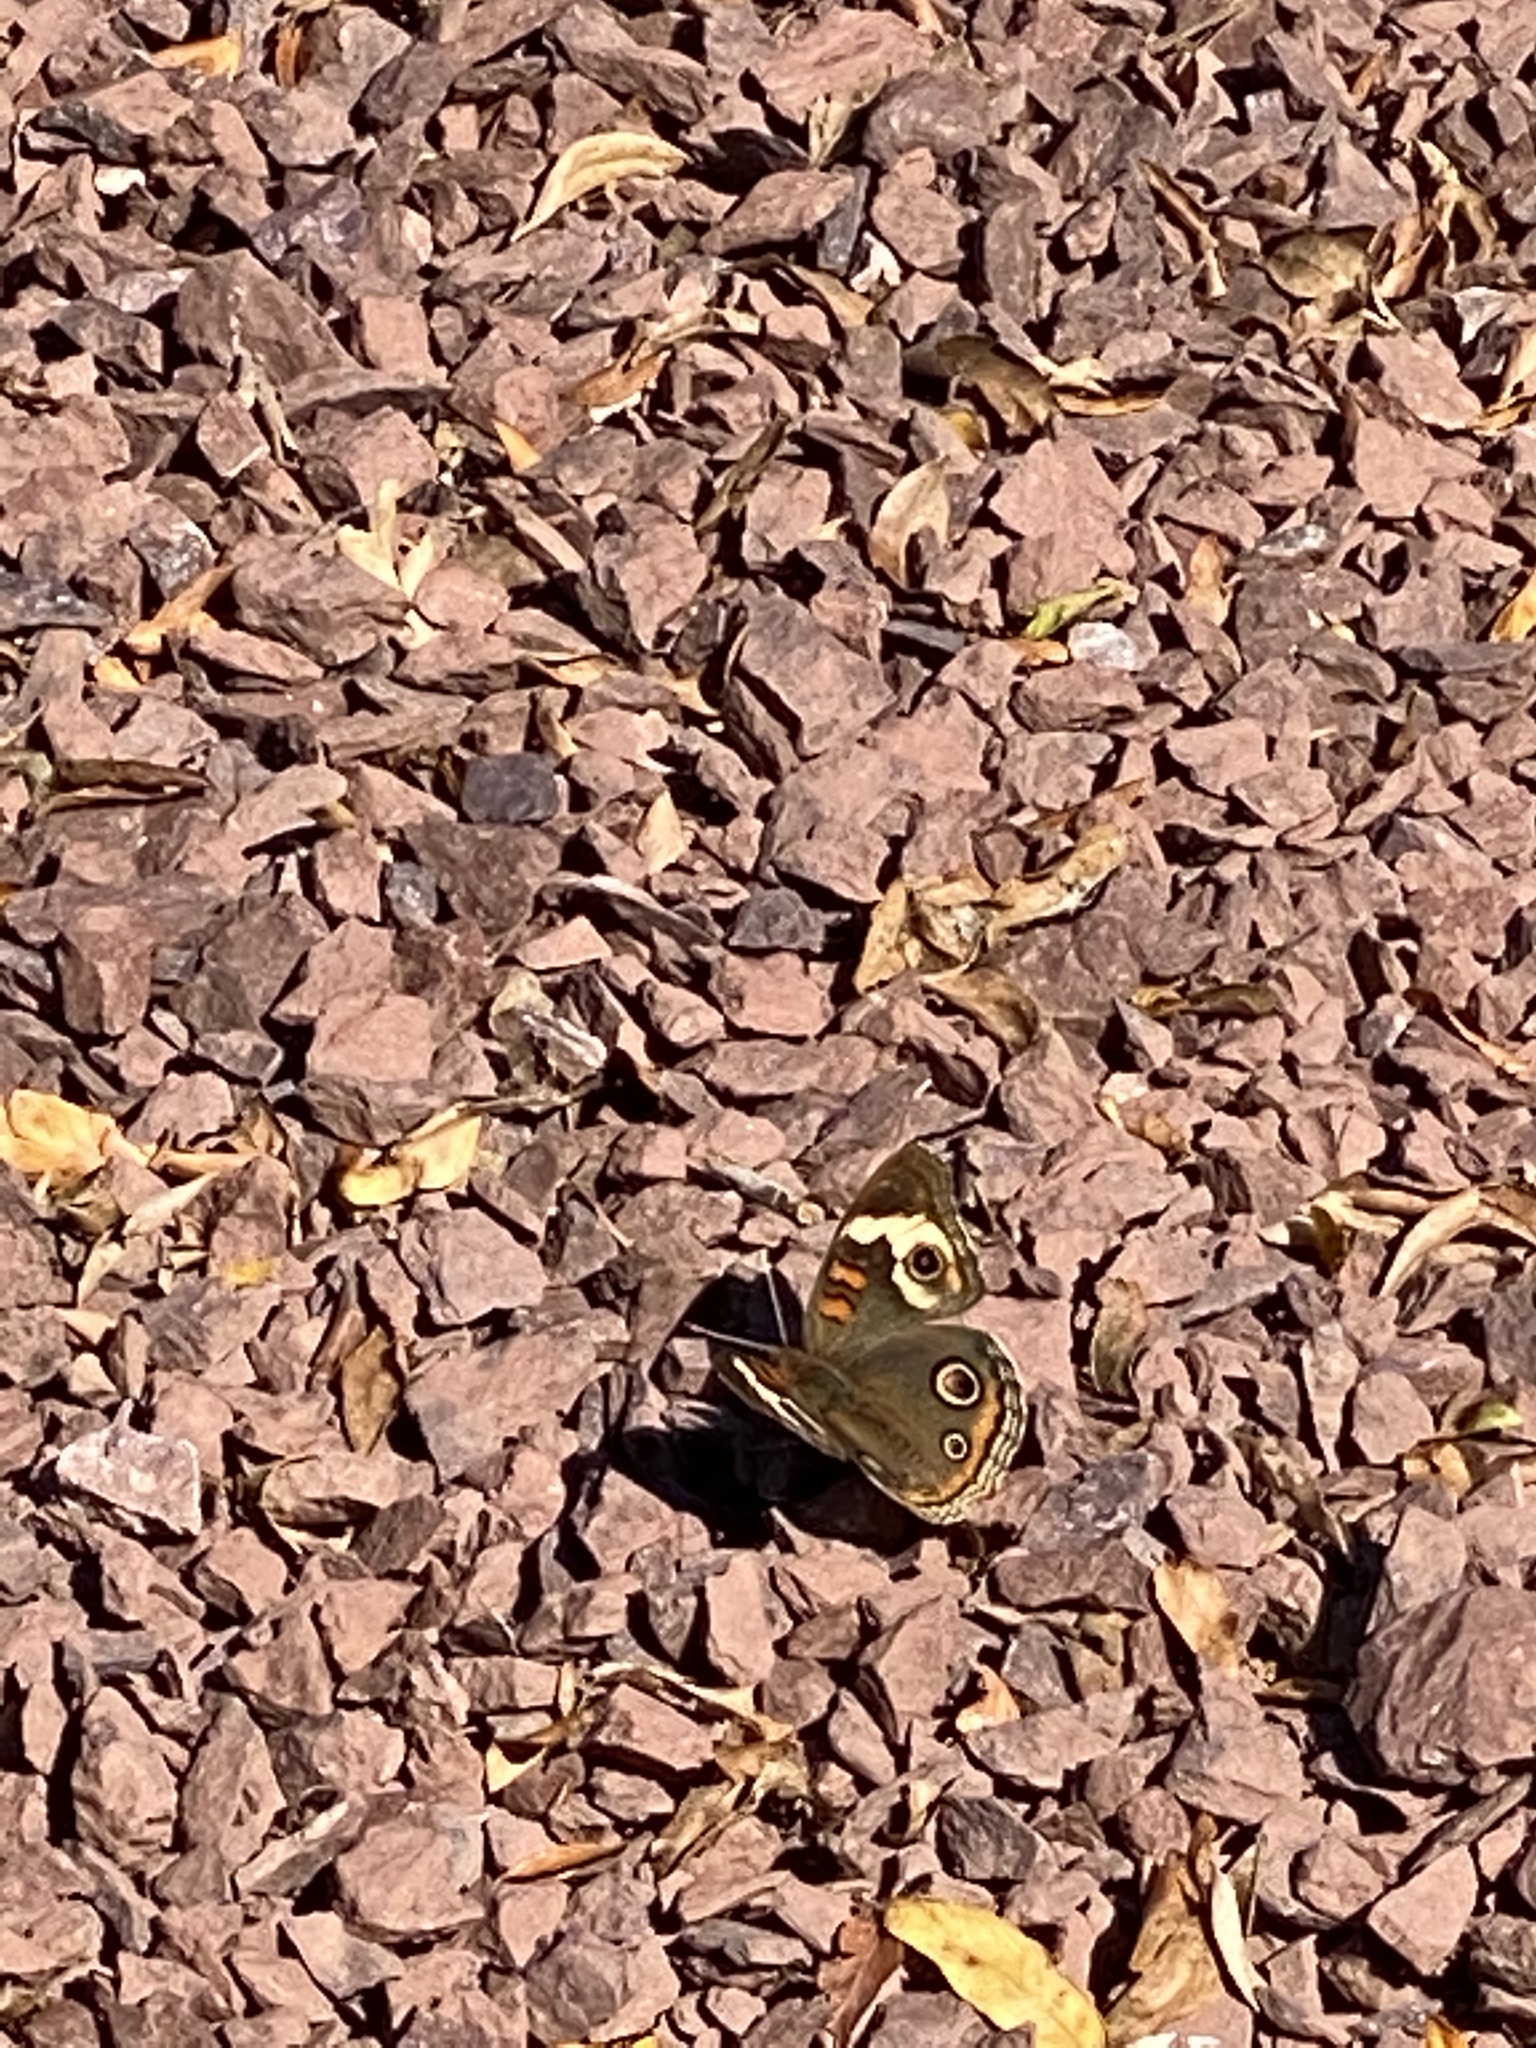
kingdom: Animalia
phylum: Arthropoda
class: Insecta
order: Lepidoptera
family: Nymphalidae
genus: Junonia
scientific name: Junonia coenia
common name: Common buckeye
